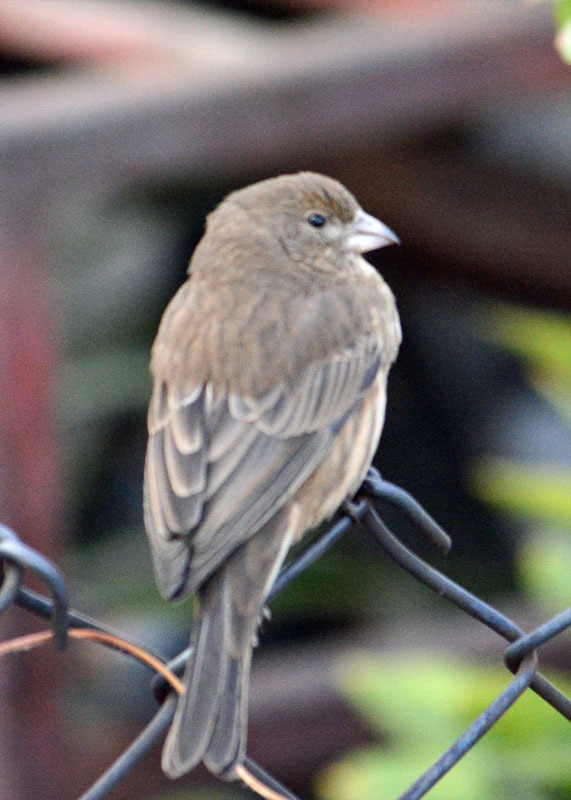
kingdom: Animalia
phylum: Chordata
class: Aves
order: Passeriformes
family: Fringillidae
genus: Haemorhous
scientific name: Haemorhous mexicanus
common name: House finch
